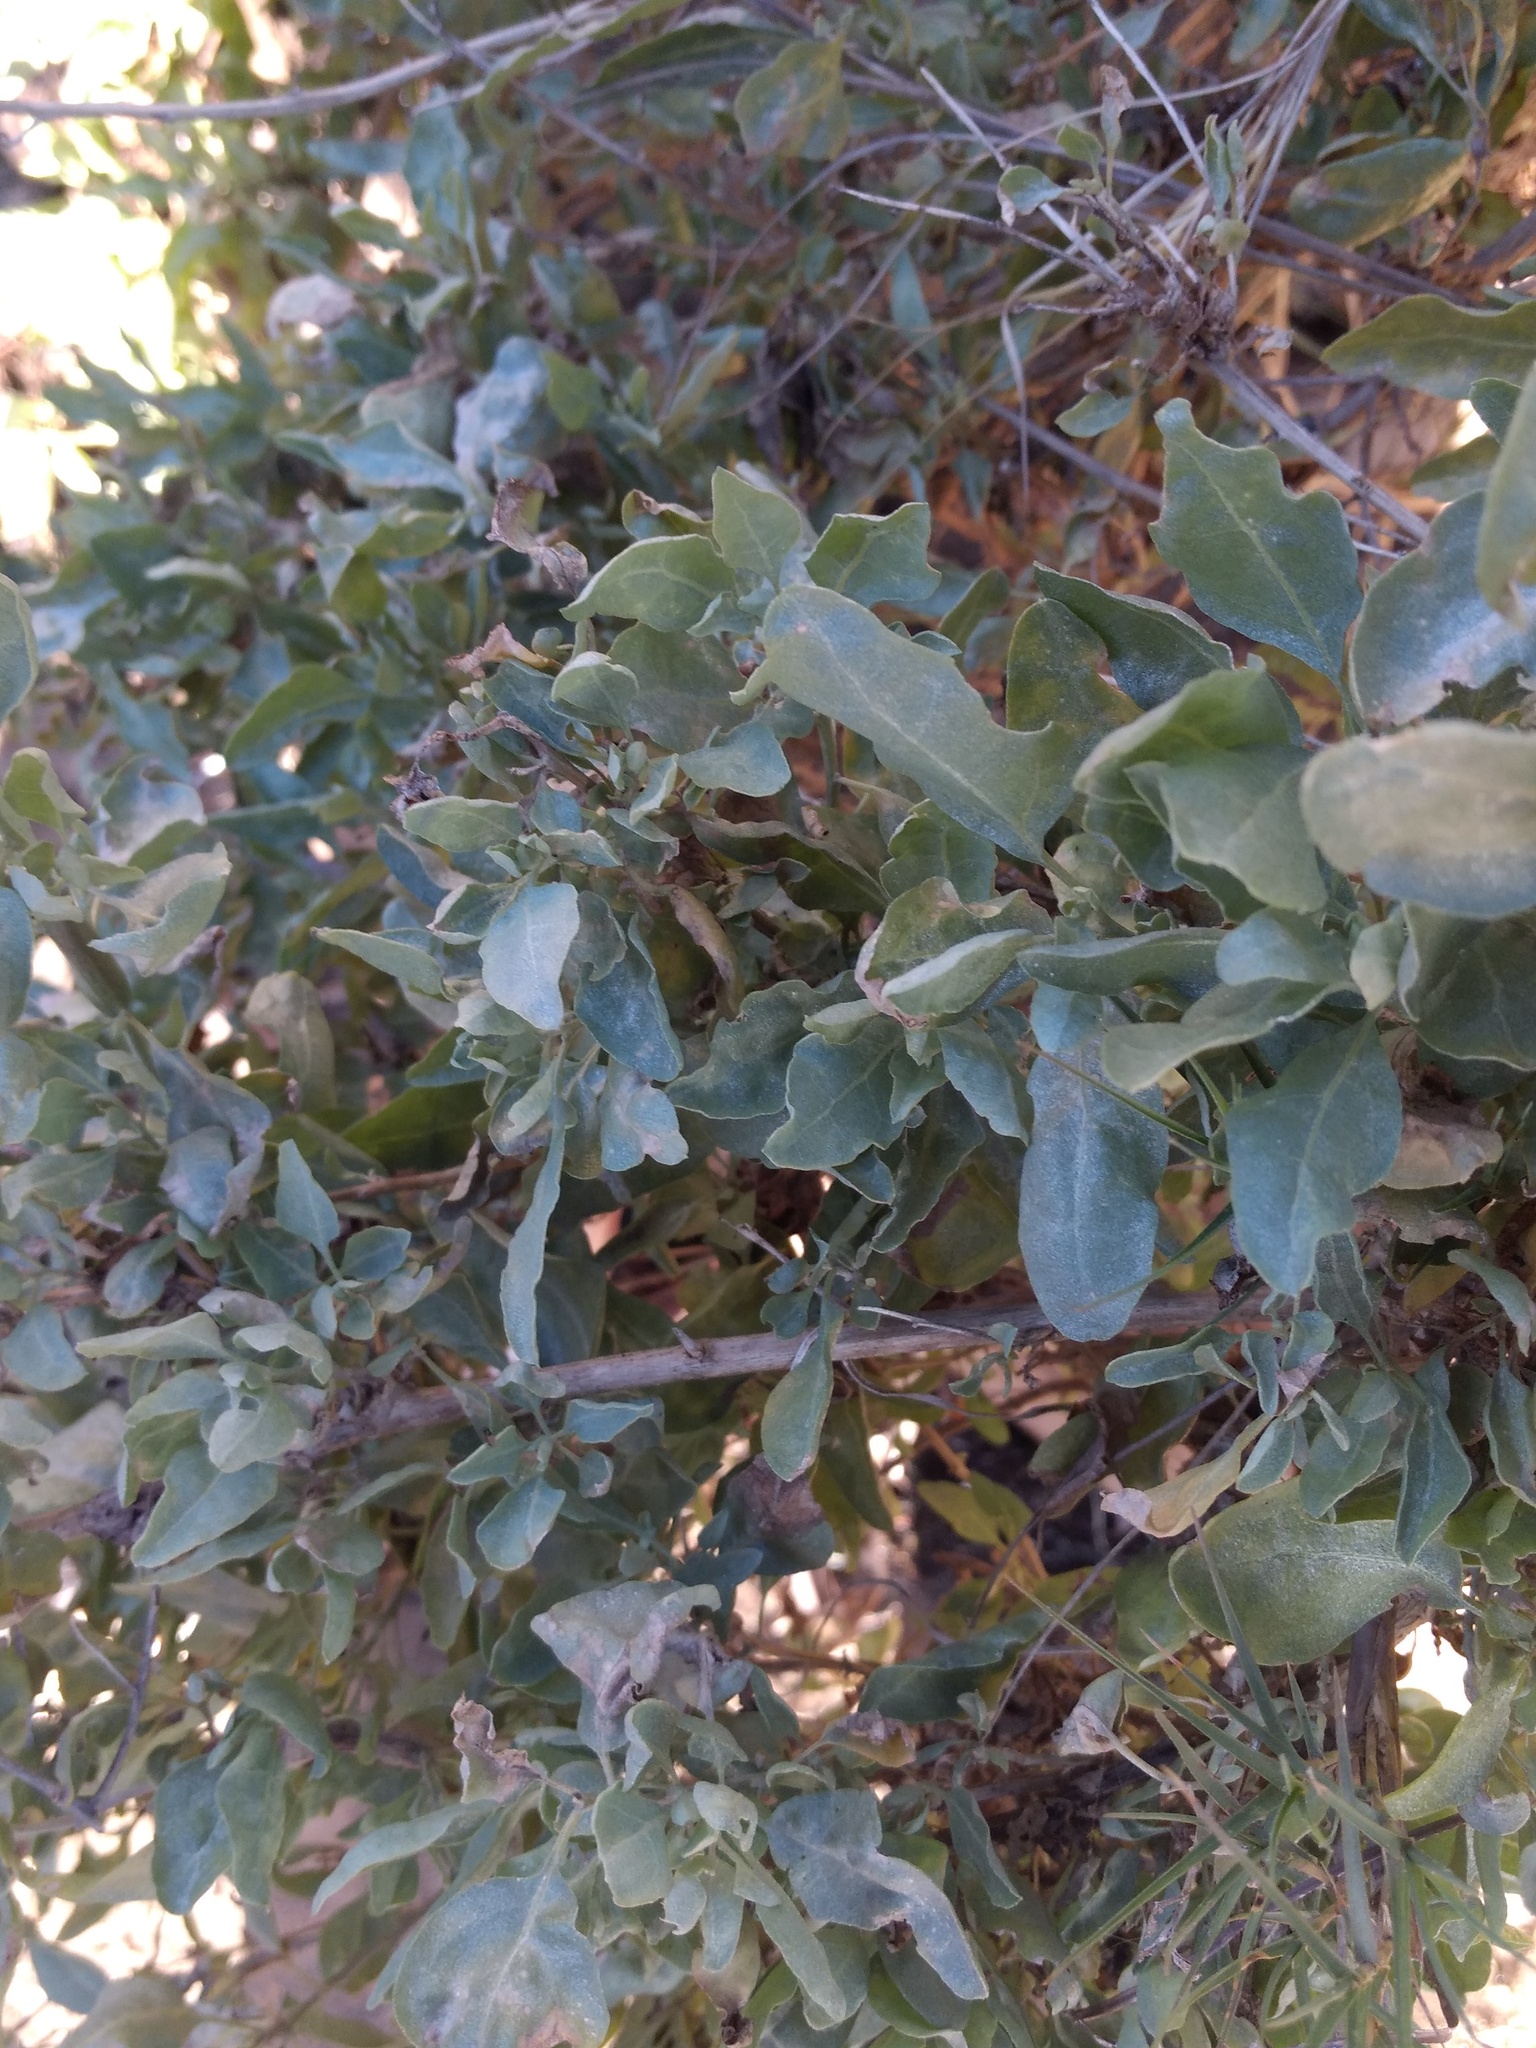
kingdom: Plantae
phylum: Tracheophyta
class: Magnoliopsida
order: Caryophyllales
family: Amaranthaceae
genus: Atriplex
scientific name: Atriplex lentiformis
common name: Big saltbush
